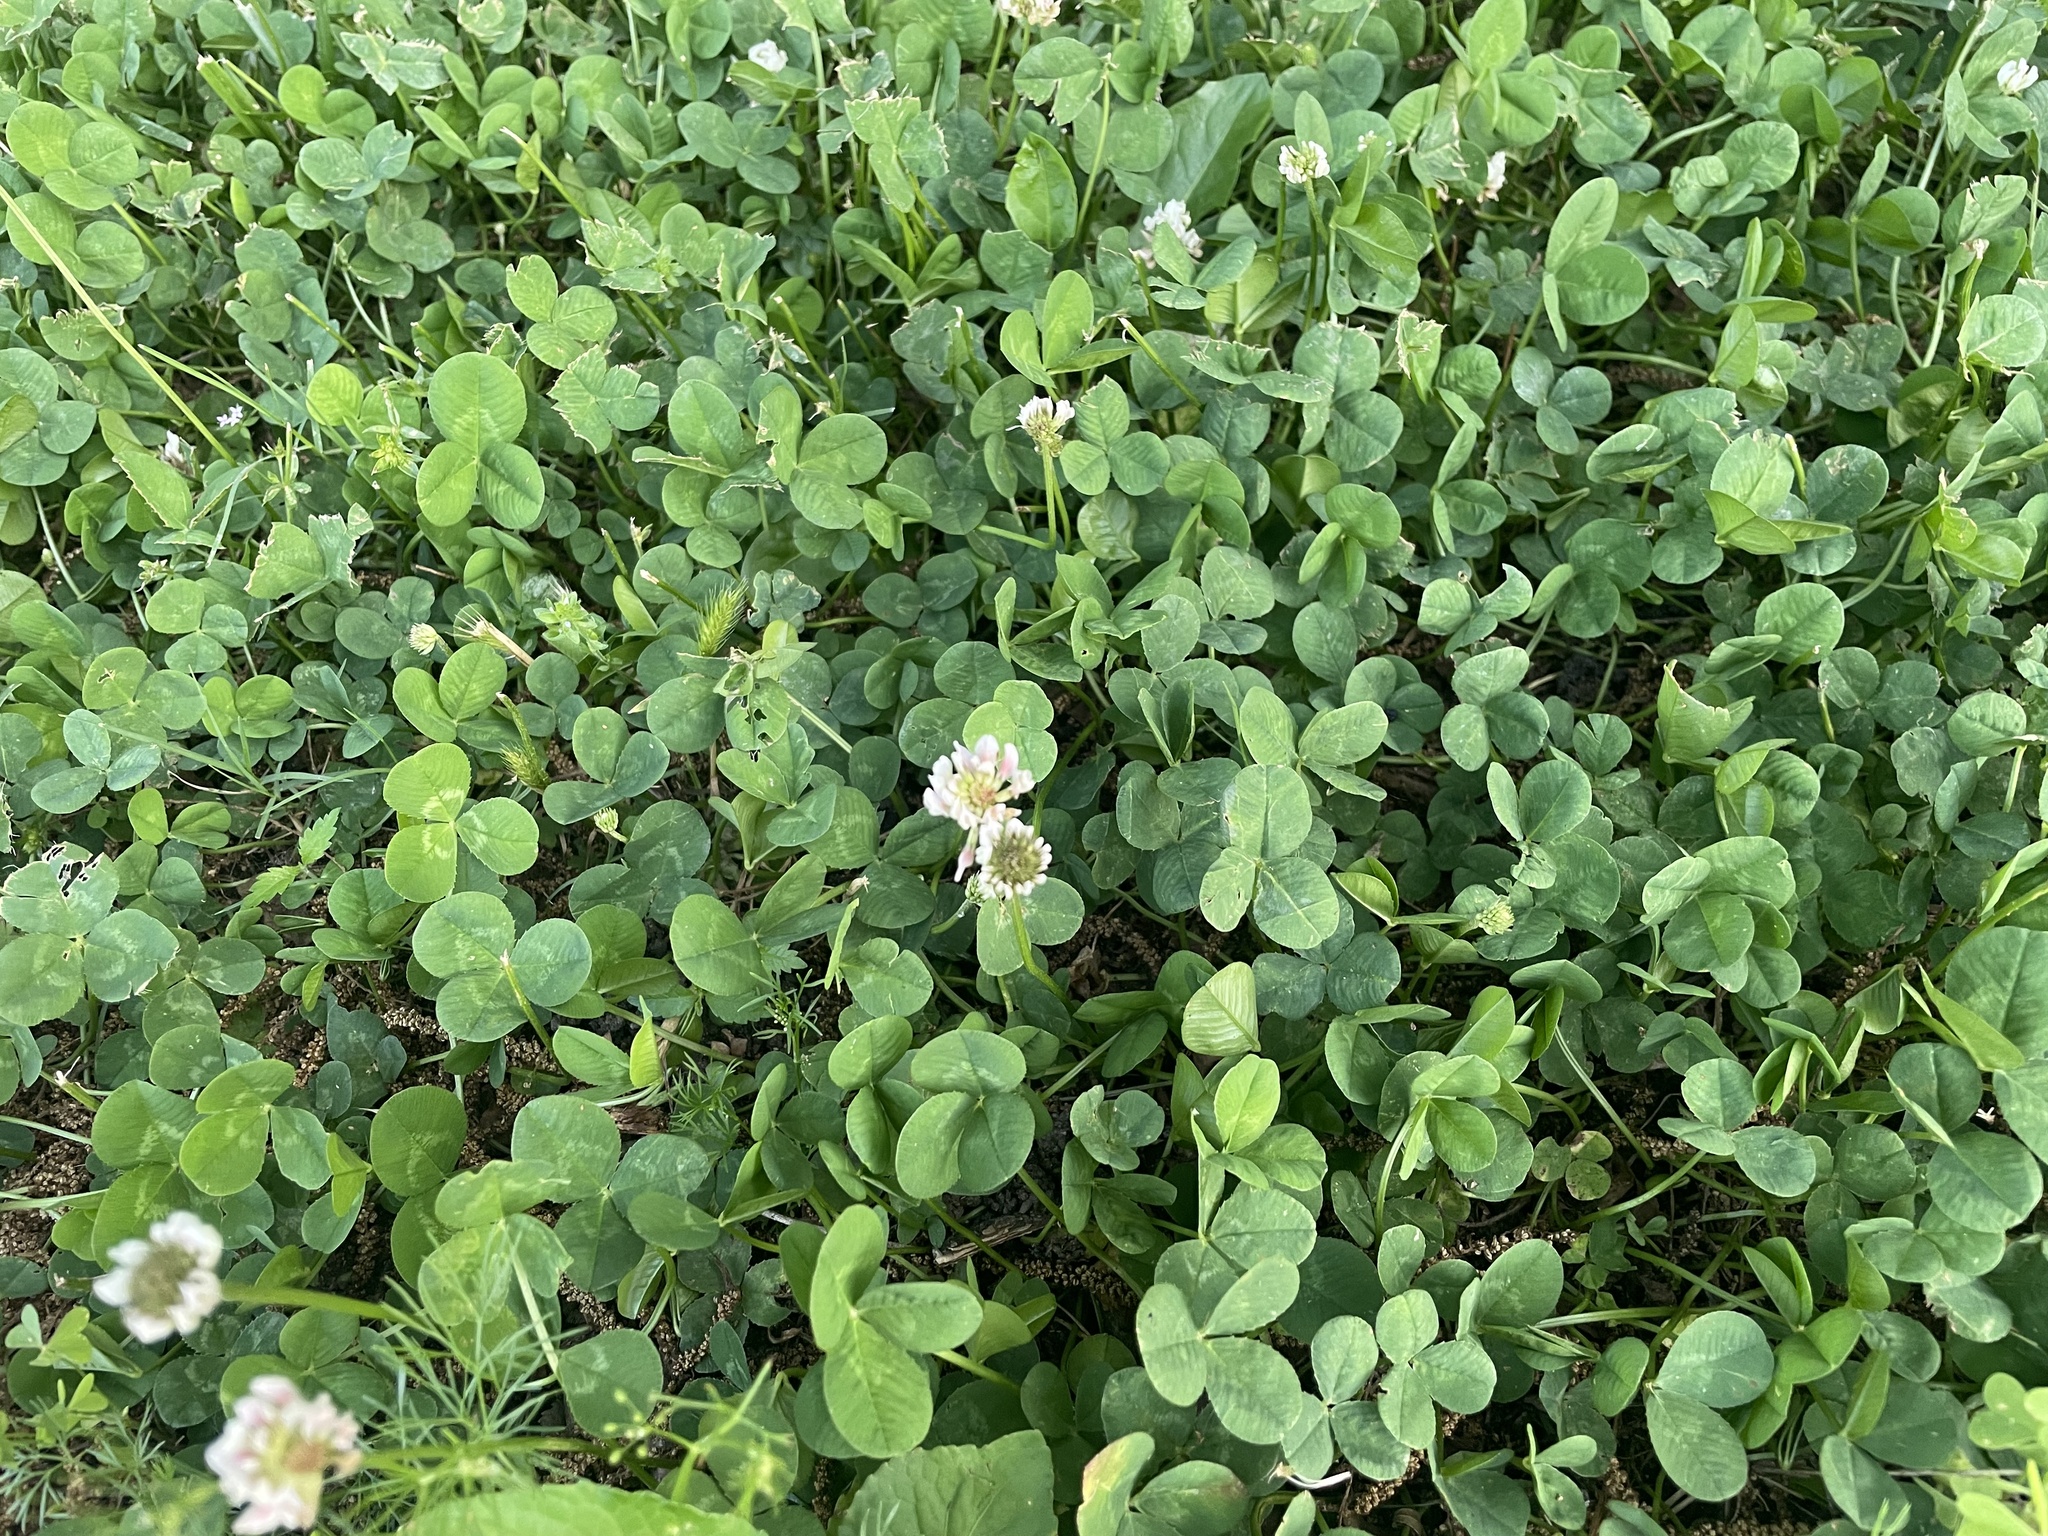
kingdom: Plantae
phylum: Tracheophyta
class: Magnoliopsida
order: Fabales
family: Fabaceae
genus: Trifolium
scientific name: Trifolium repens
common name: White clover
